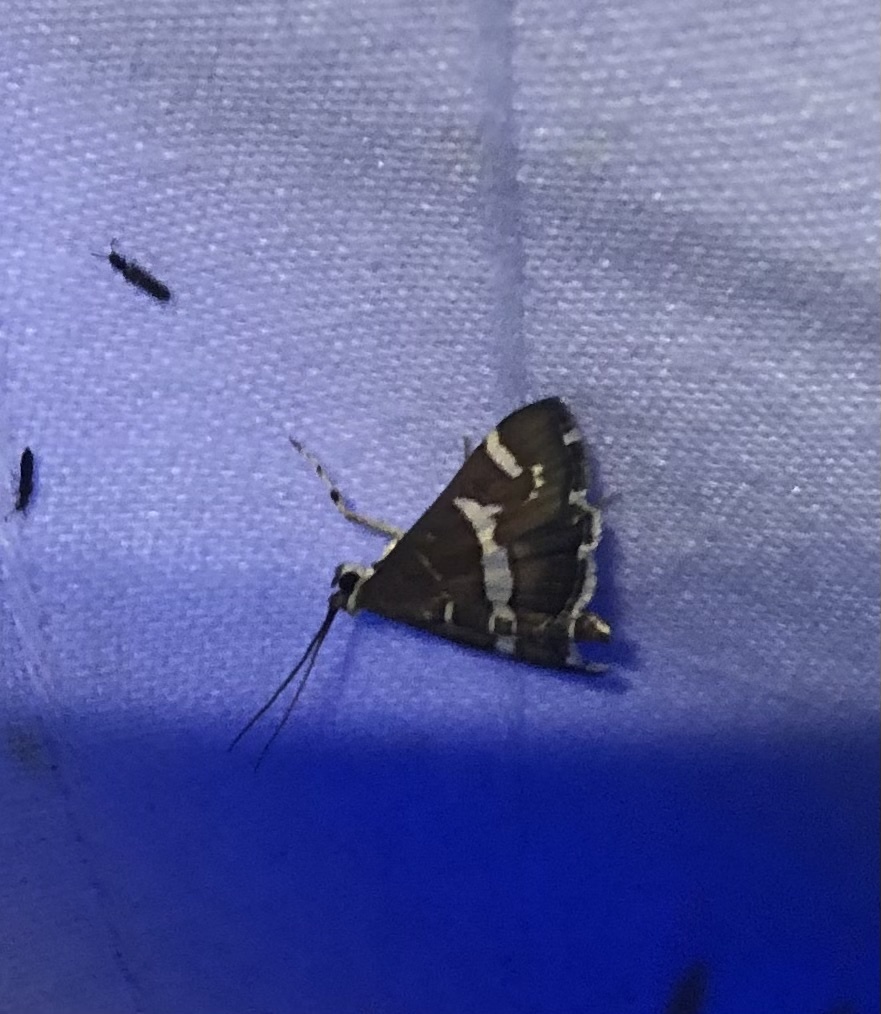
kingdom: Animalia
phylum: Arthropoda
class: Insecta
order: Lepidoptera
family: Crambidae
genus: Spoladea
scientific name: Spoladea recurvalis
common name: Beet webworm moth
